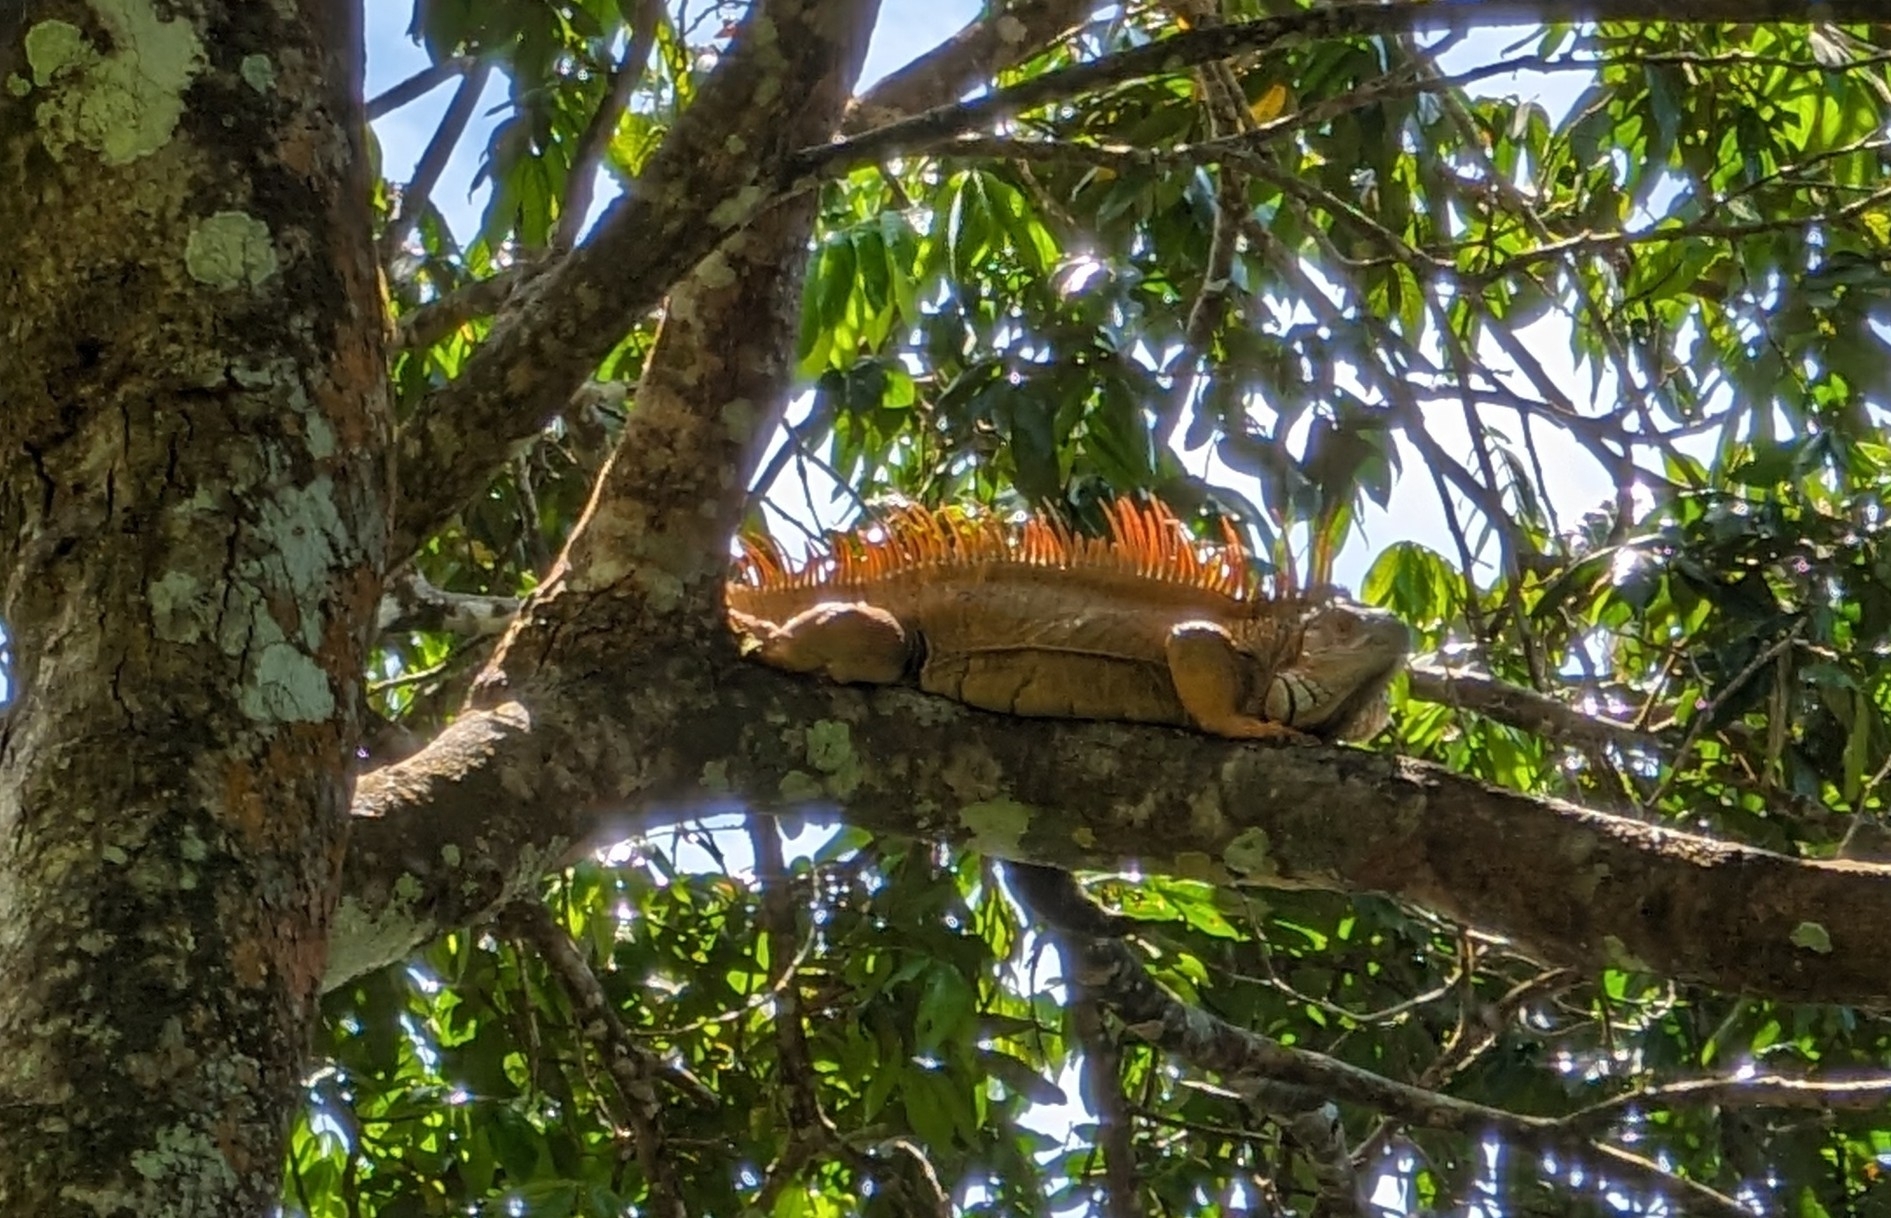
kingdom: Animalia
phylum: Chordata
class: Squamata
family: Iguanidae
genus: Iguana
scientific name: Iguana iguana
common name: Green iguana
